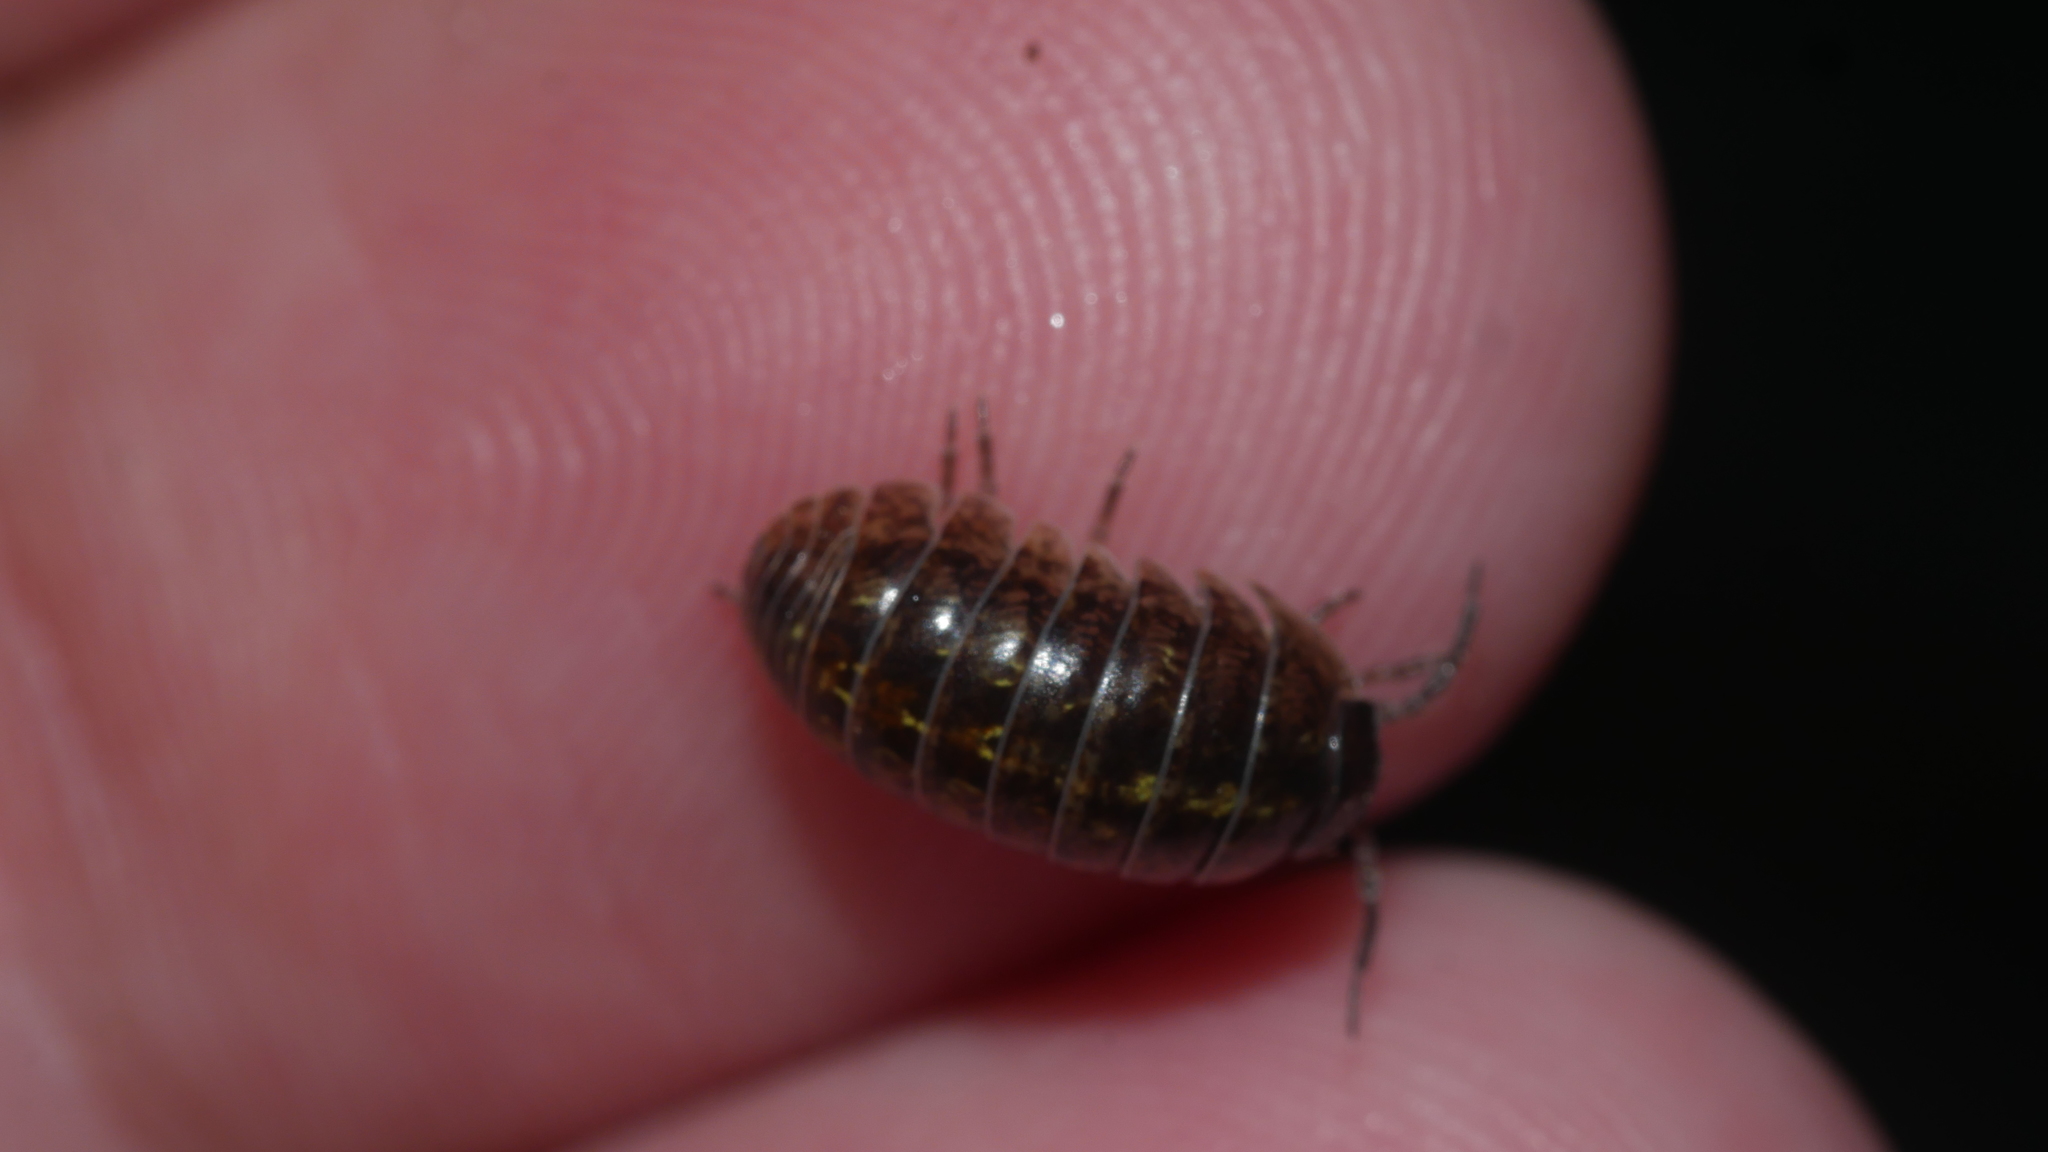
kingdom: Animalia
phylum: Arthropoda
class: Malacostraca
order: Isopoda
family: Armadillidiidae
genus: Armadillidium
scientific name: Armadillidium vulgare
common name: Common pill woodlouse
